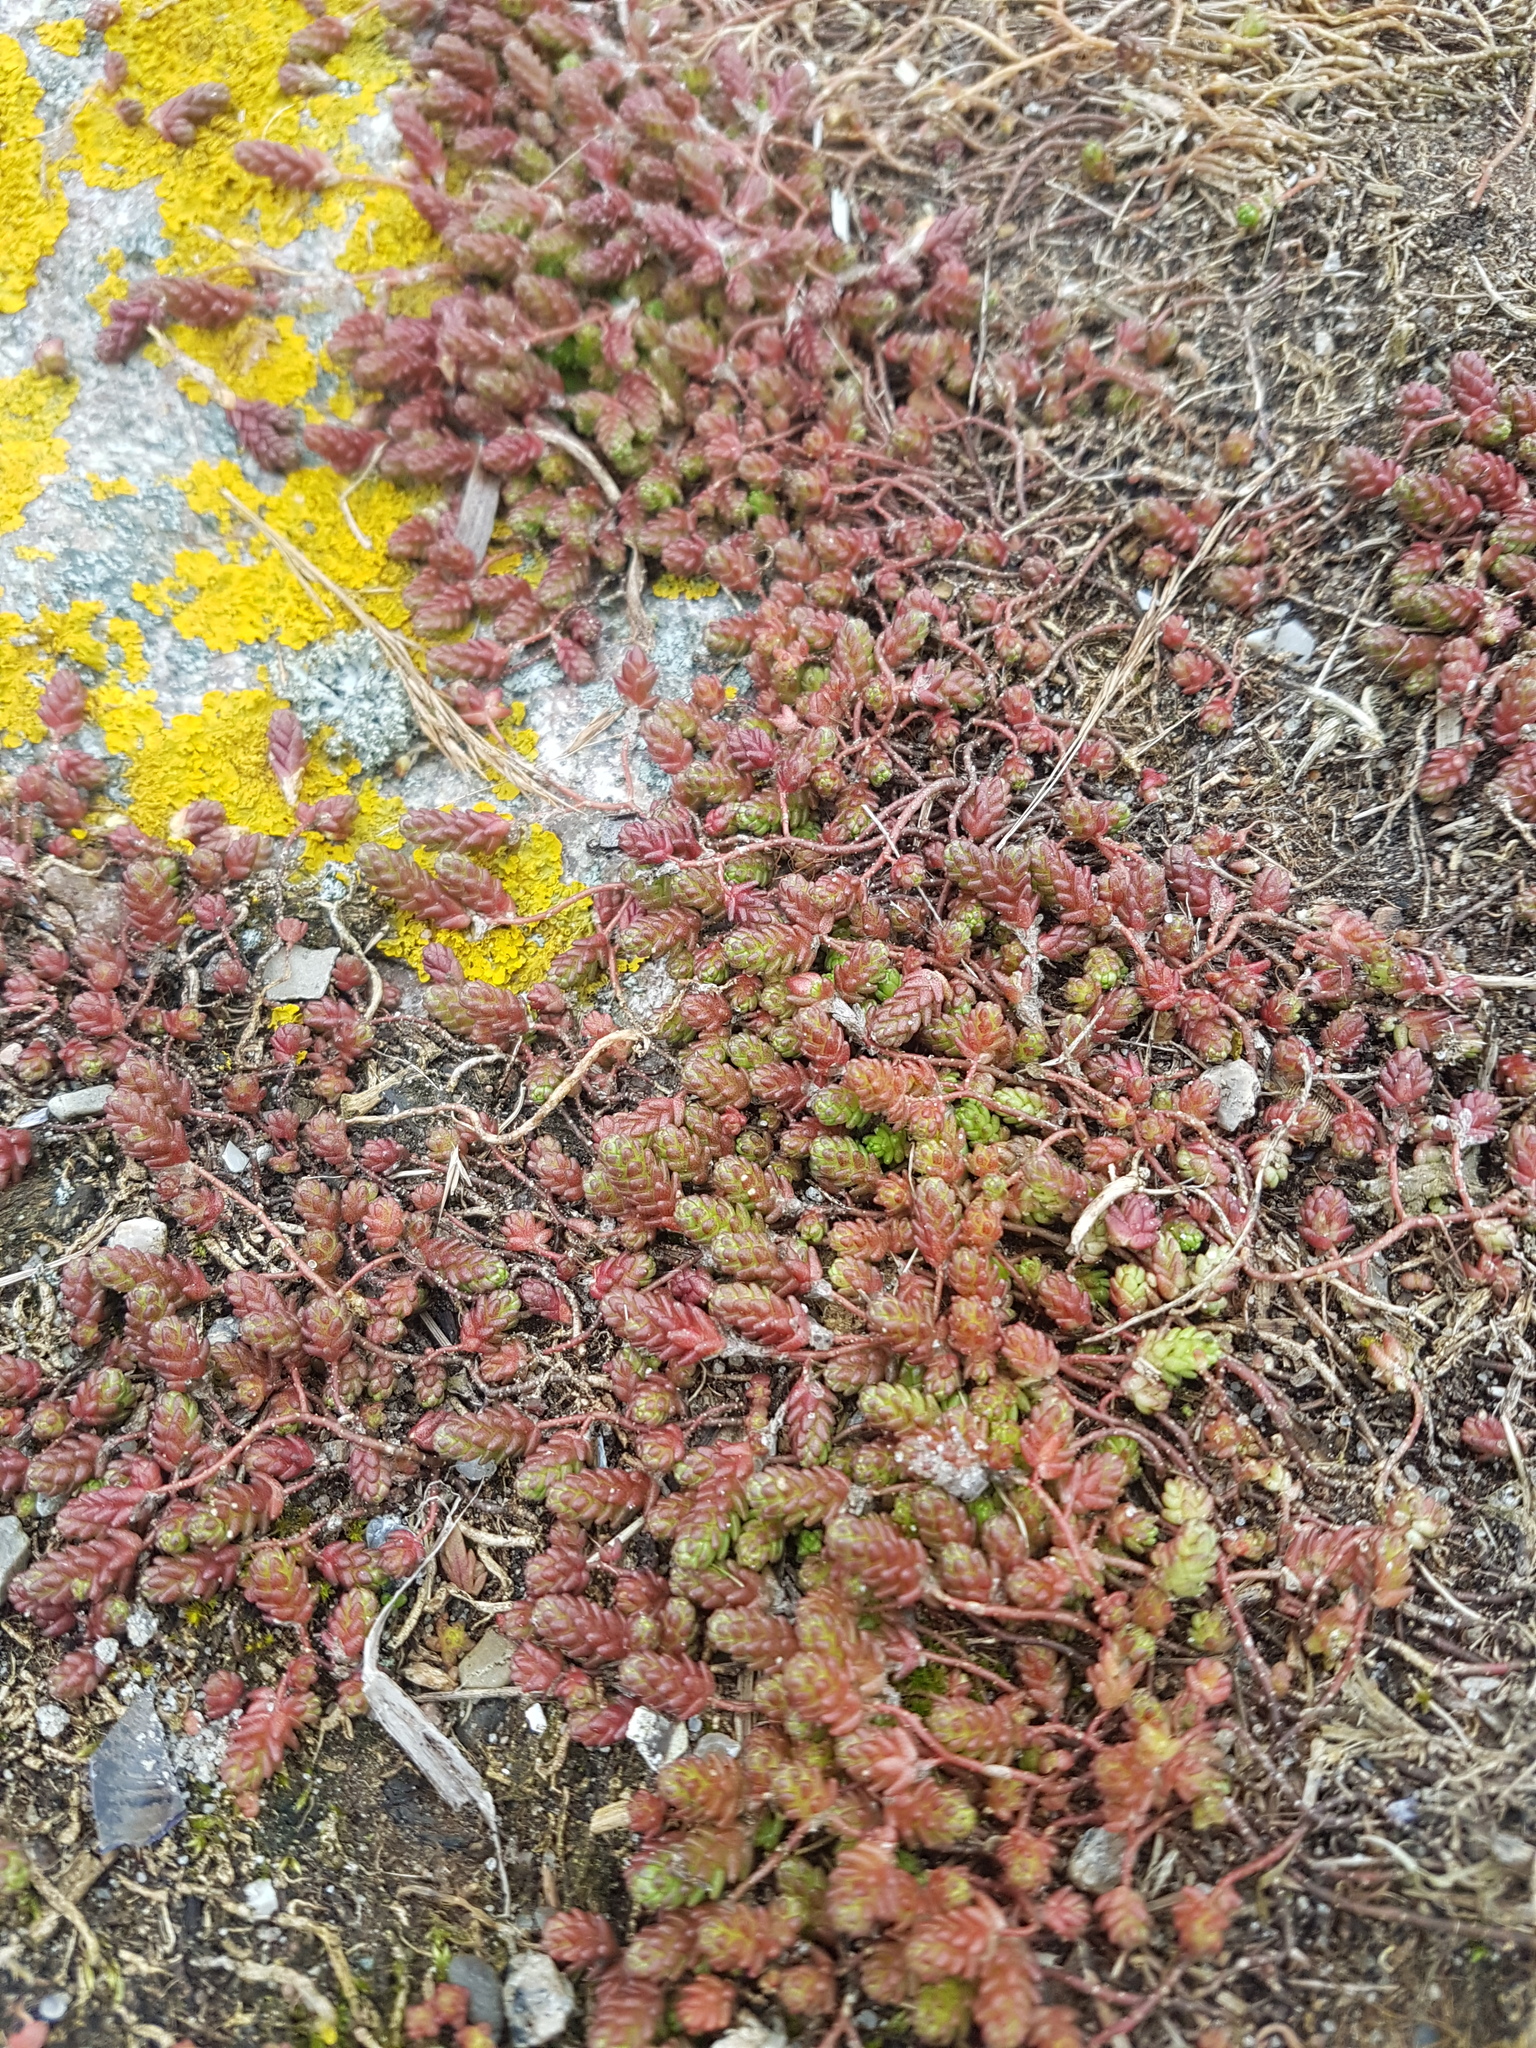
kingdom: Plantae
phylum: Tracheophyta
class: Magnoliopsida
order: Saxifragales
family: Crassulaceae
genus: Sedum
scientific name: Sedum acre
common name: Biting stonecrop
